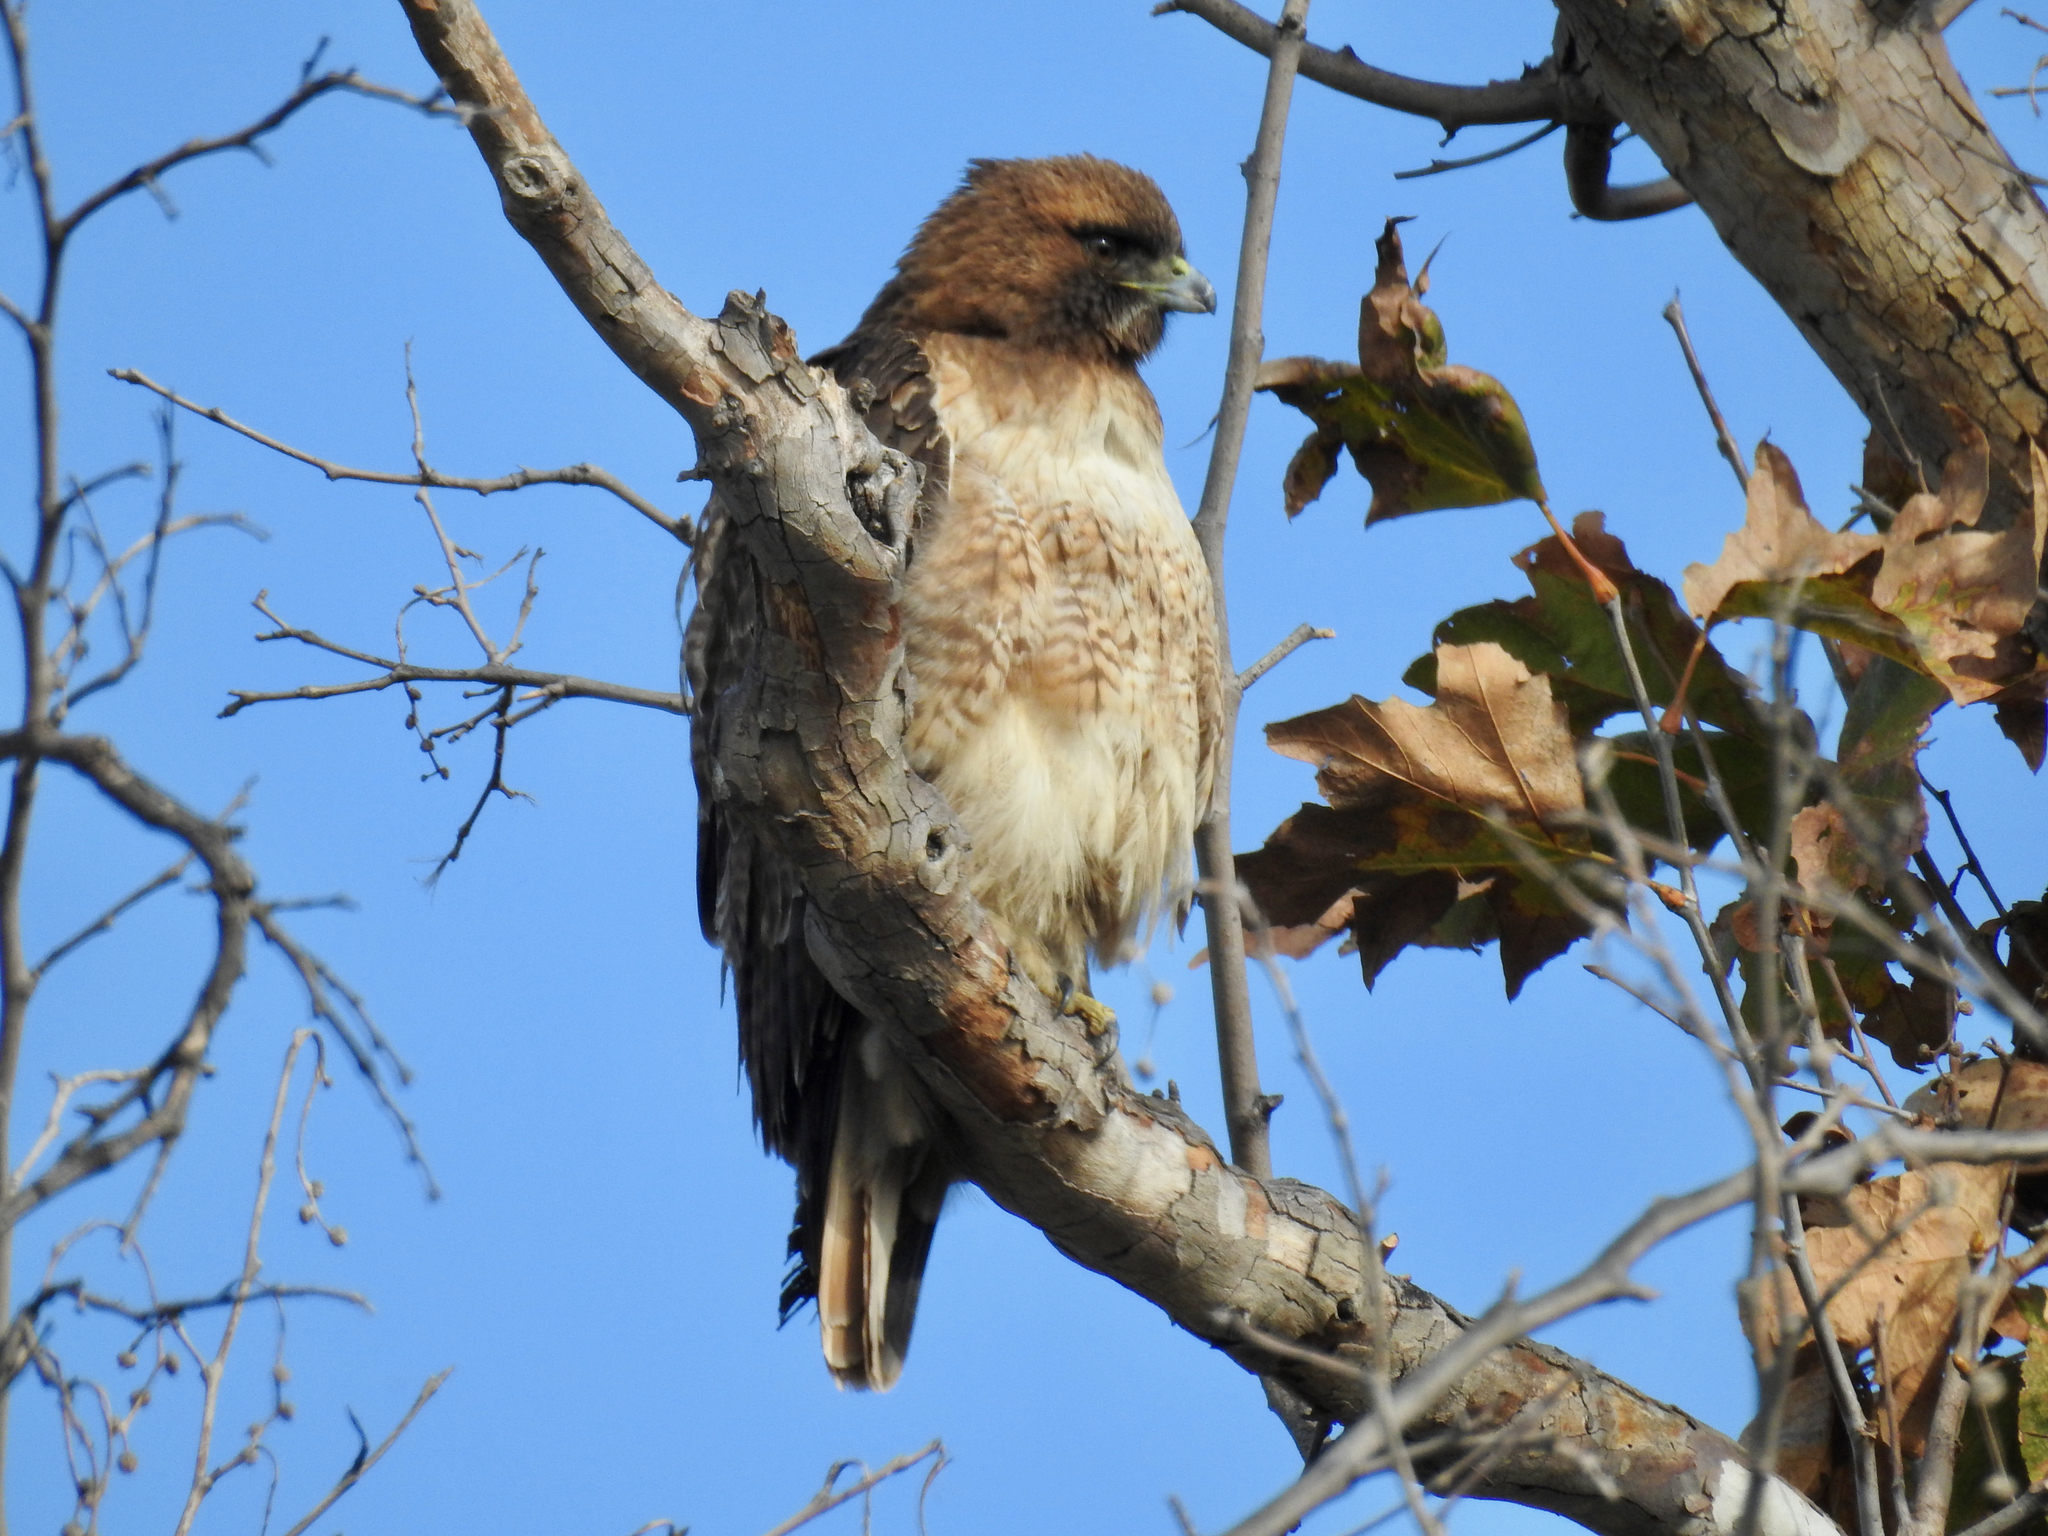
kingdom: Animalia
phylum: Chordata
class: Aves
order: Accipitriformes
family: Accipitridae
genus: Buteo
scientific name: Buteo jamaicensis
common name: Red-tailed hawk
